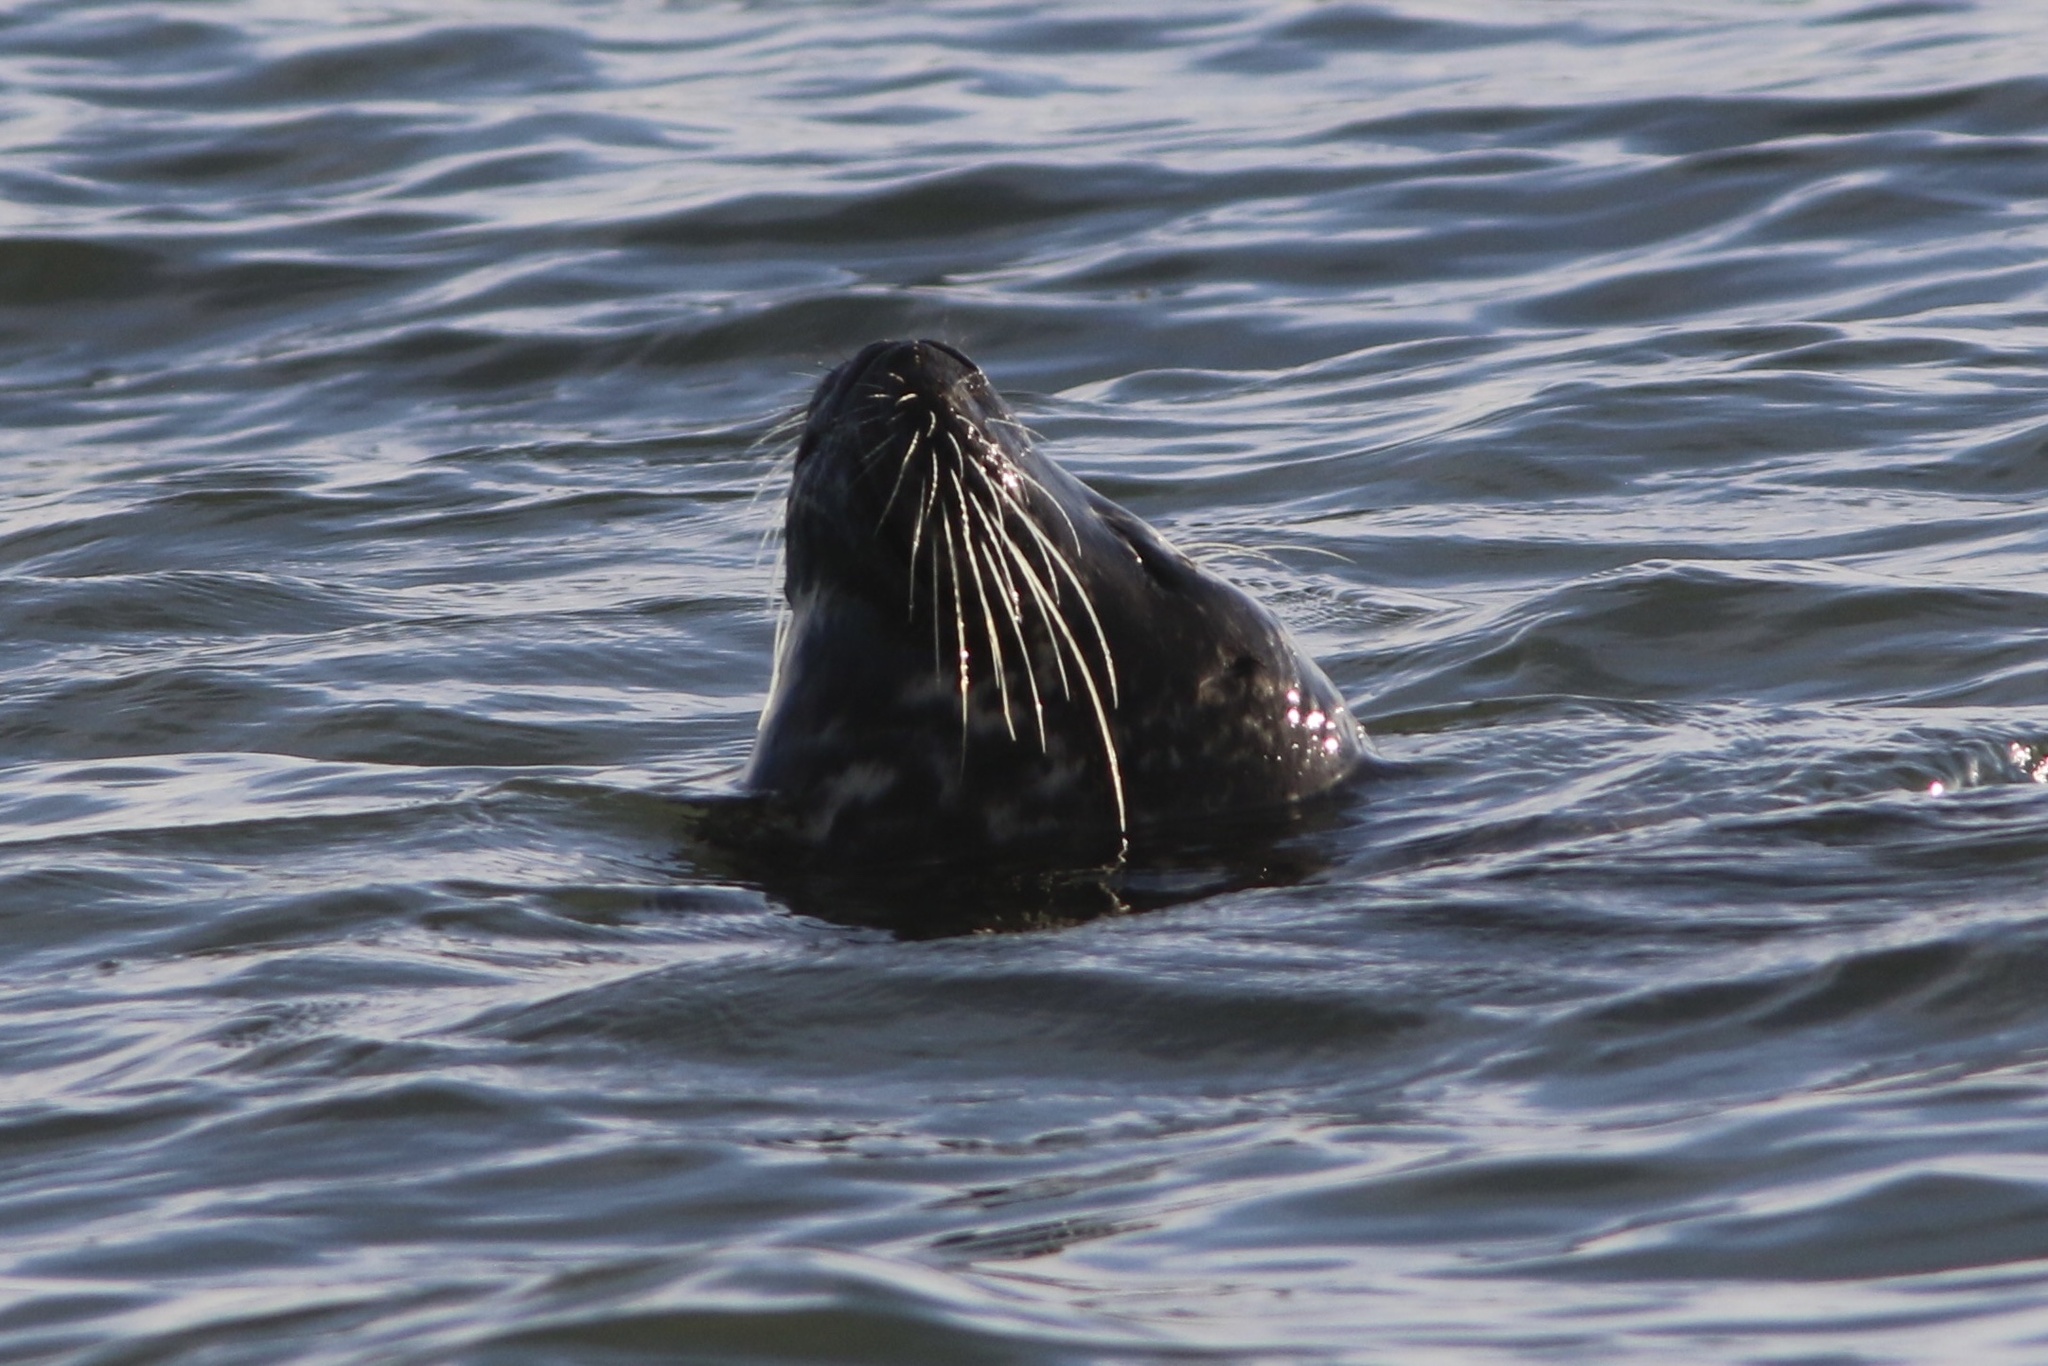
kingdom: Animalia
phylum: Chordata
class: Mammalia
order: Carnivora
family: Phocidae
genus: Phoca
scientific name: Phoca vitulina
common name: Harbor seal
